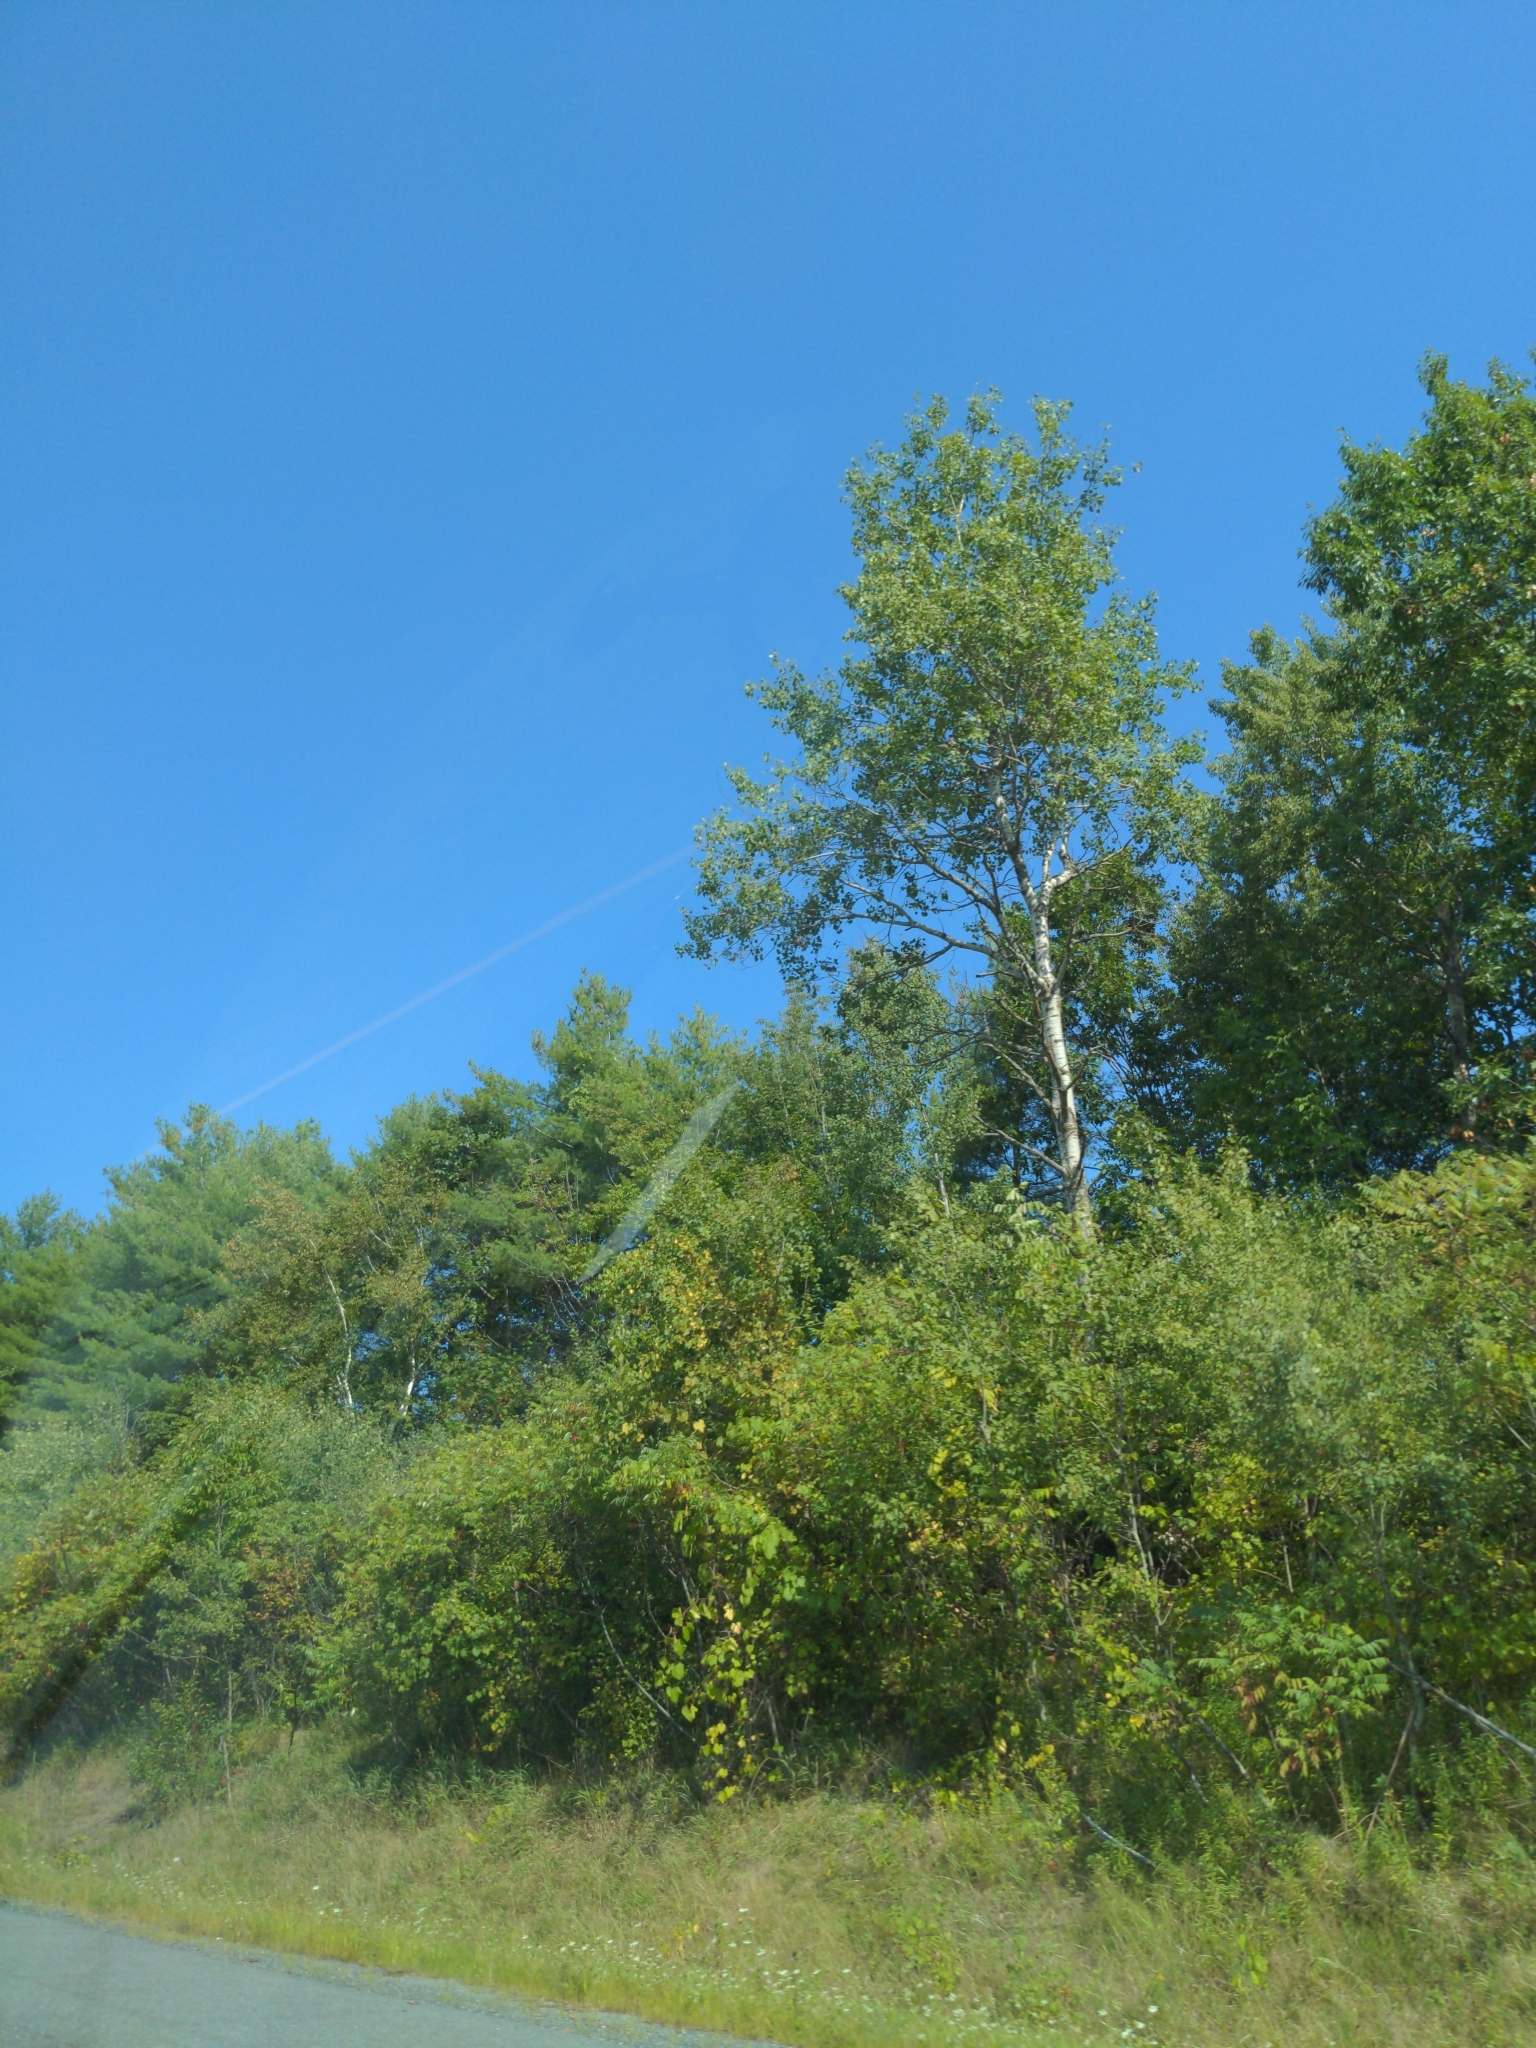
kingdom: Plantae
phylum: Tracheophyta
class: Magnoliopsida
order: Malpighiales
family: Salicaceae
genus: Populus
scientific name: Populus tremuloides
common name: Quaking aspen
